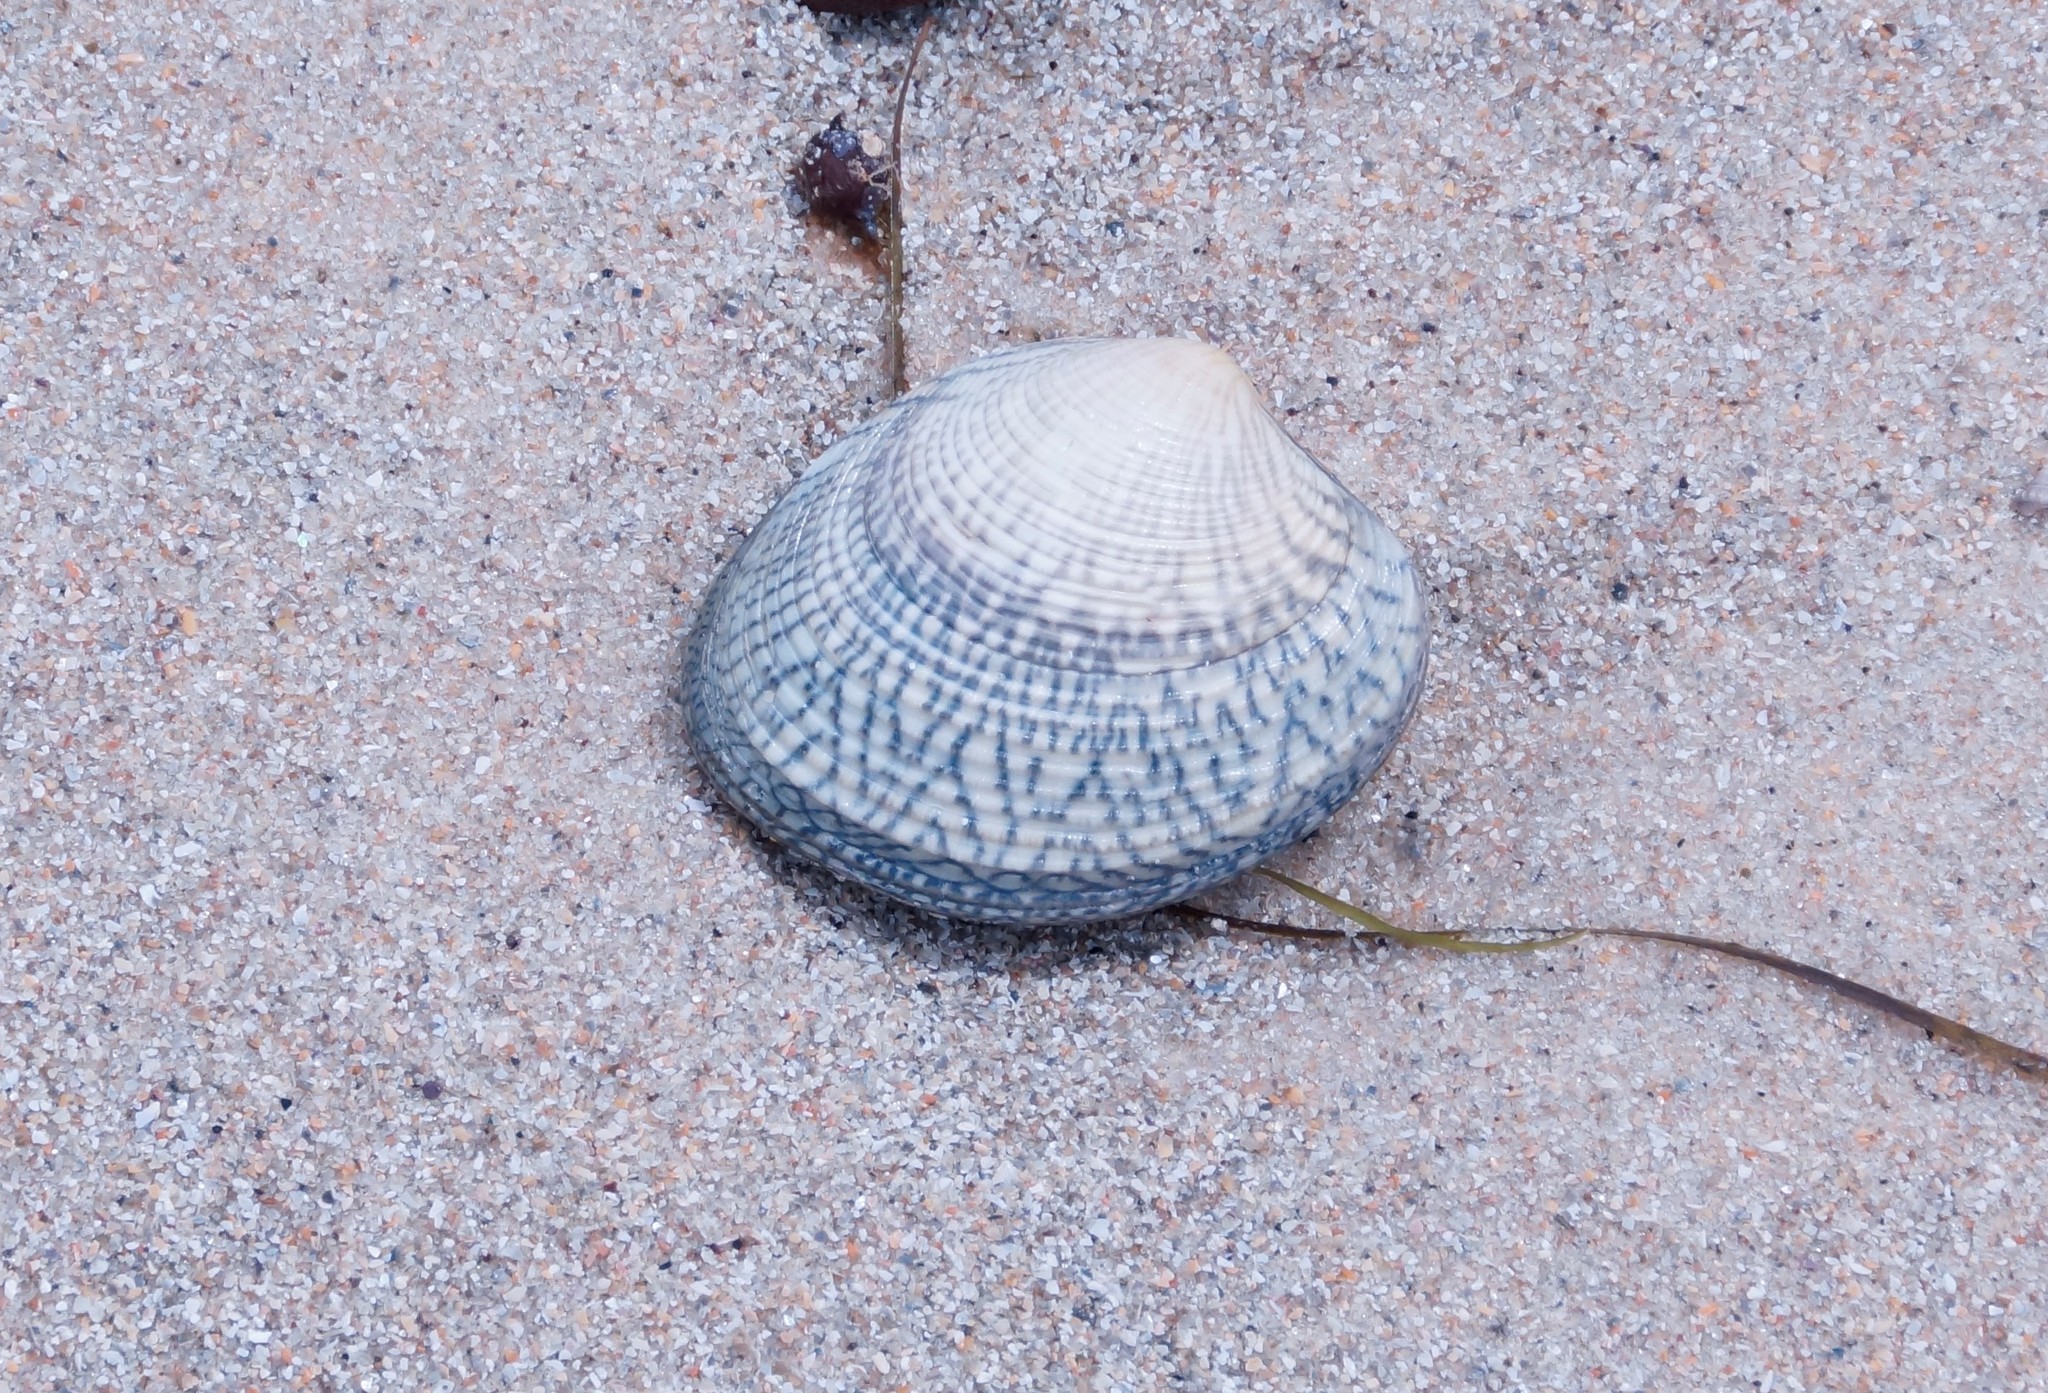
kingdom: Animalia
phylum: Mollusca
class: Bivalvia
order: Venerida
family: Veneridae
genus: Katelysia
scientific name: Katelysia rhytiphora
